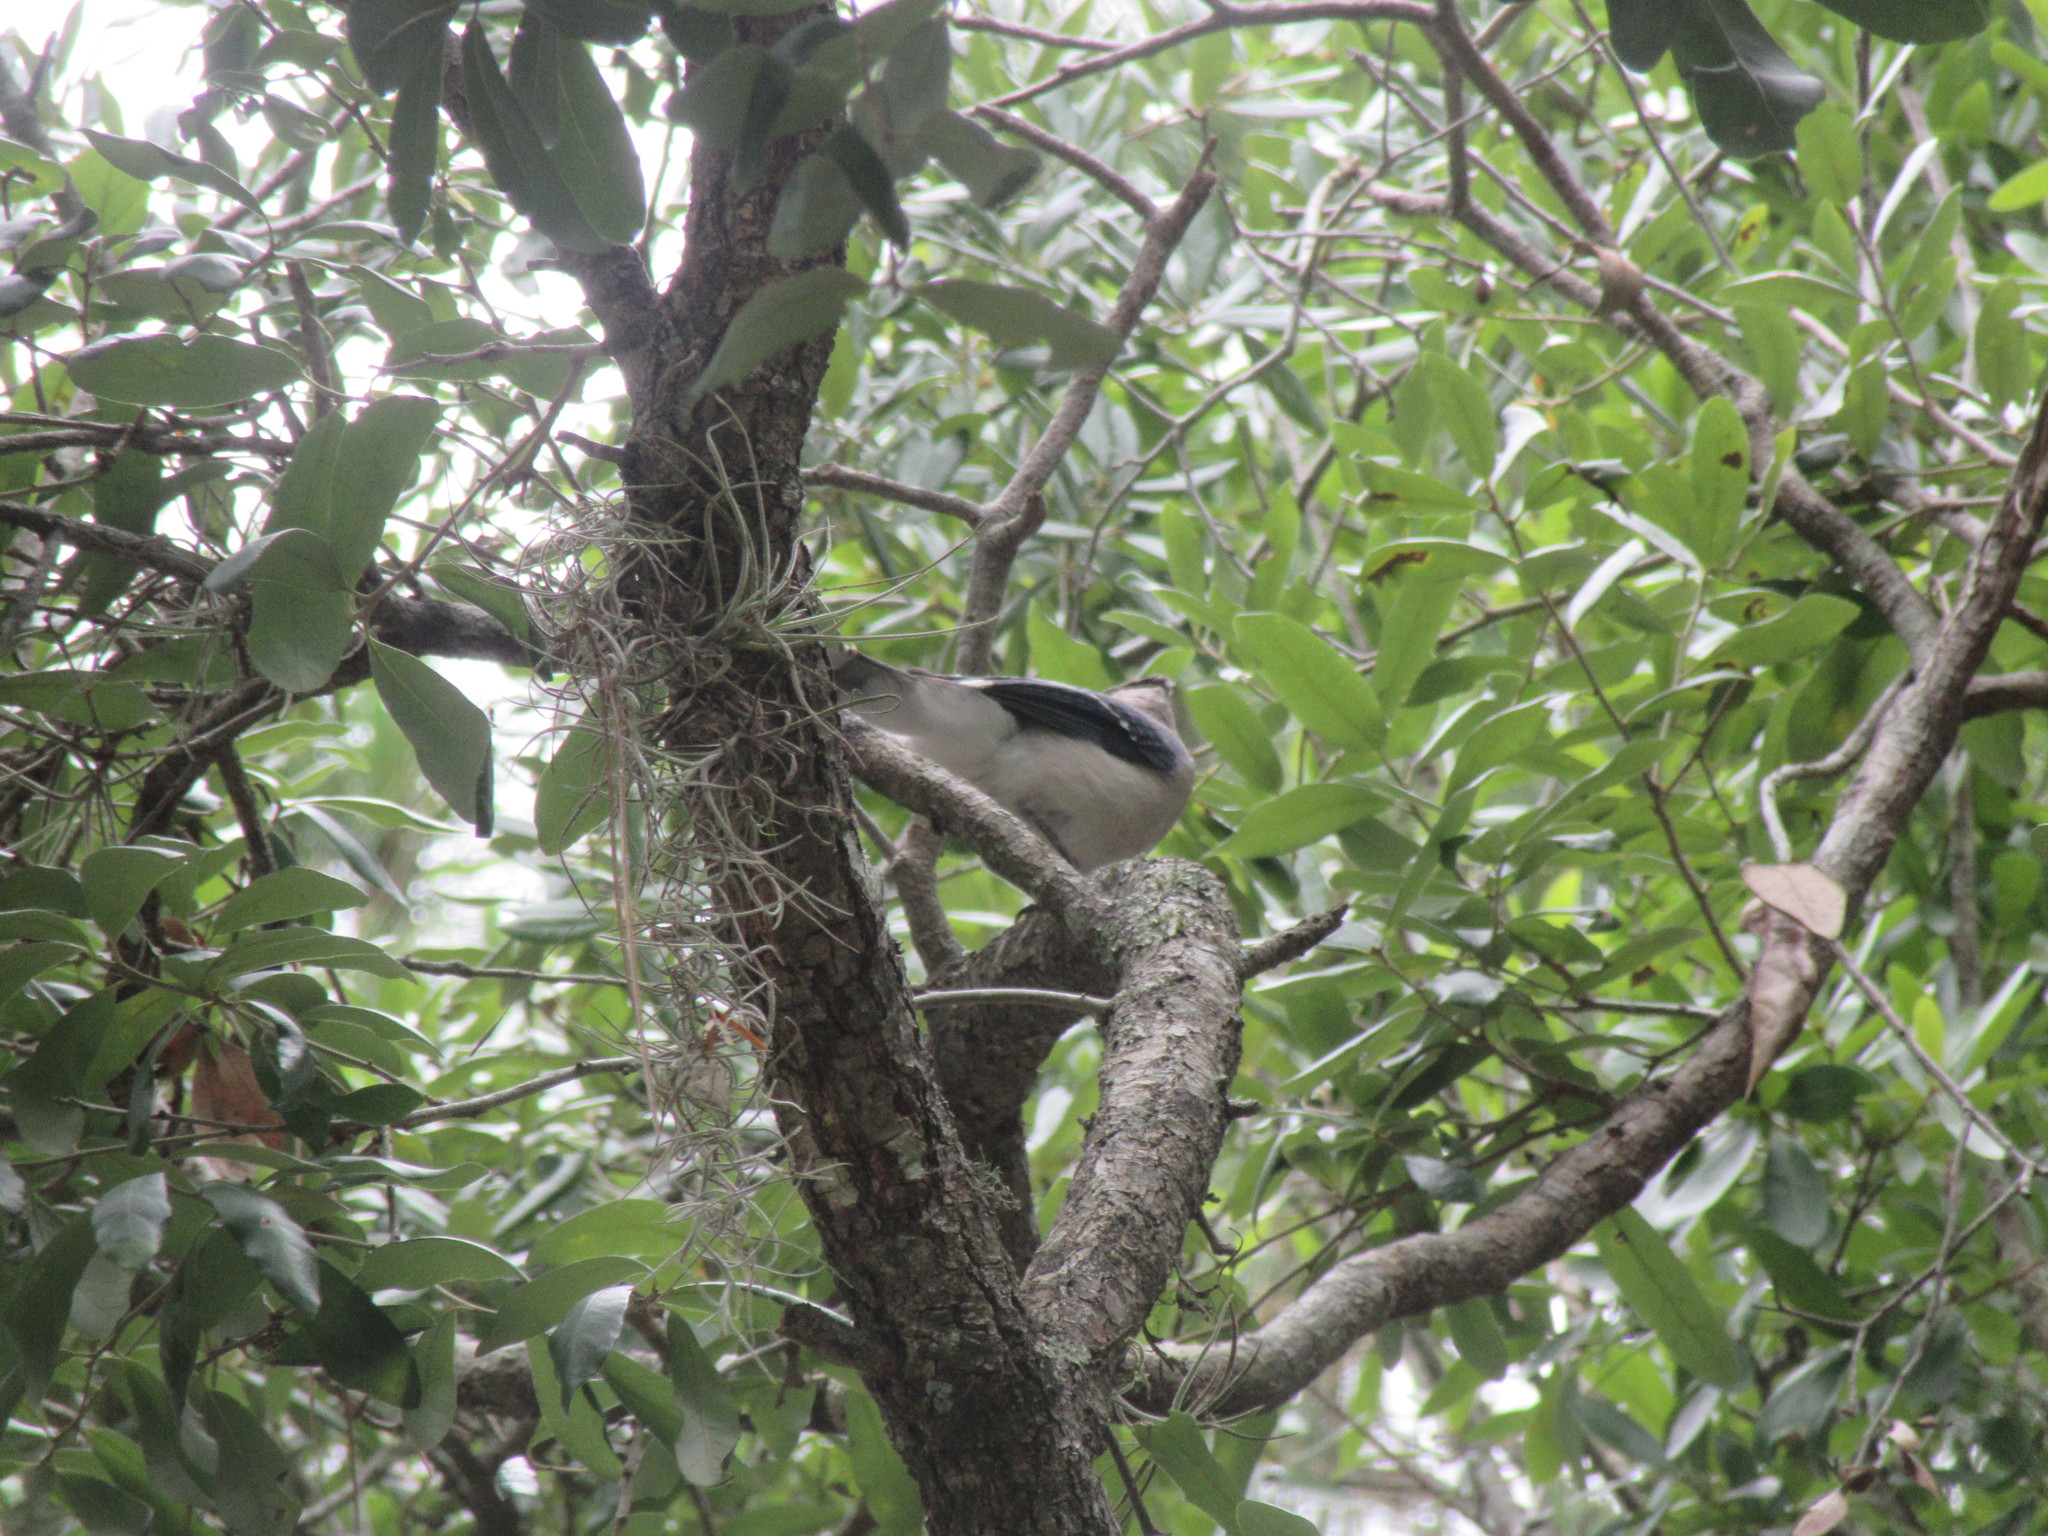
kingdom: Animalia
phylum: Chordata
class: Aves
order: Passeriformes
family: Corvidae
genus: Cyanocitta
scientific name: Cyanocitta cristata
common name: Blue jay
